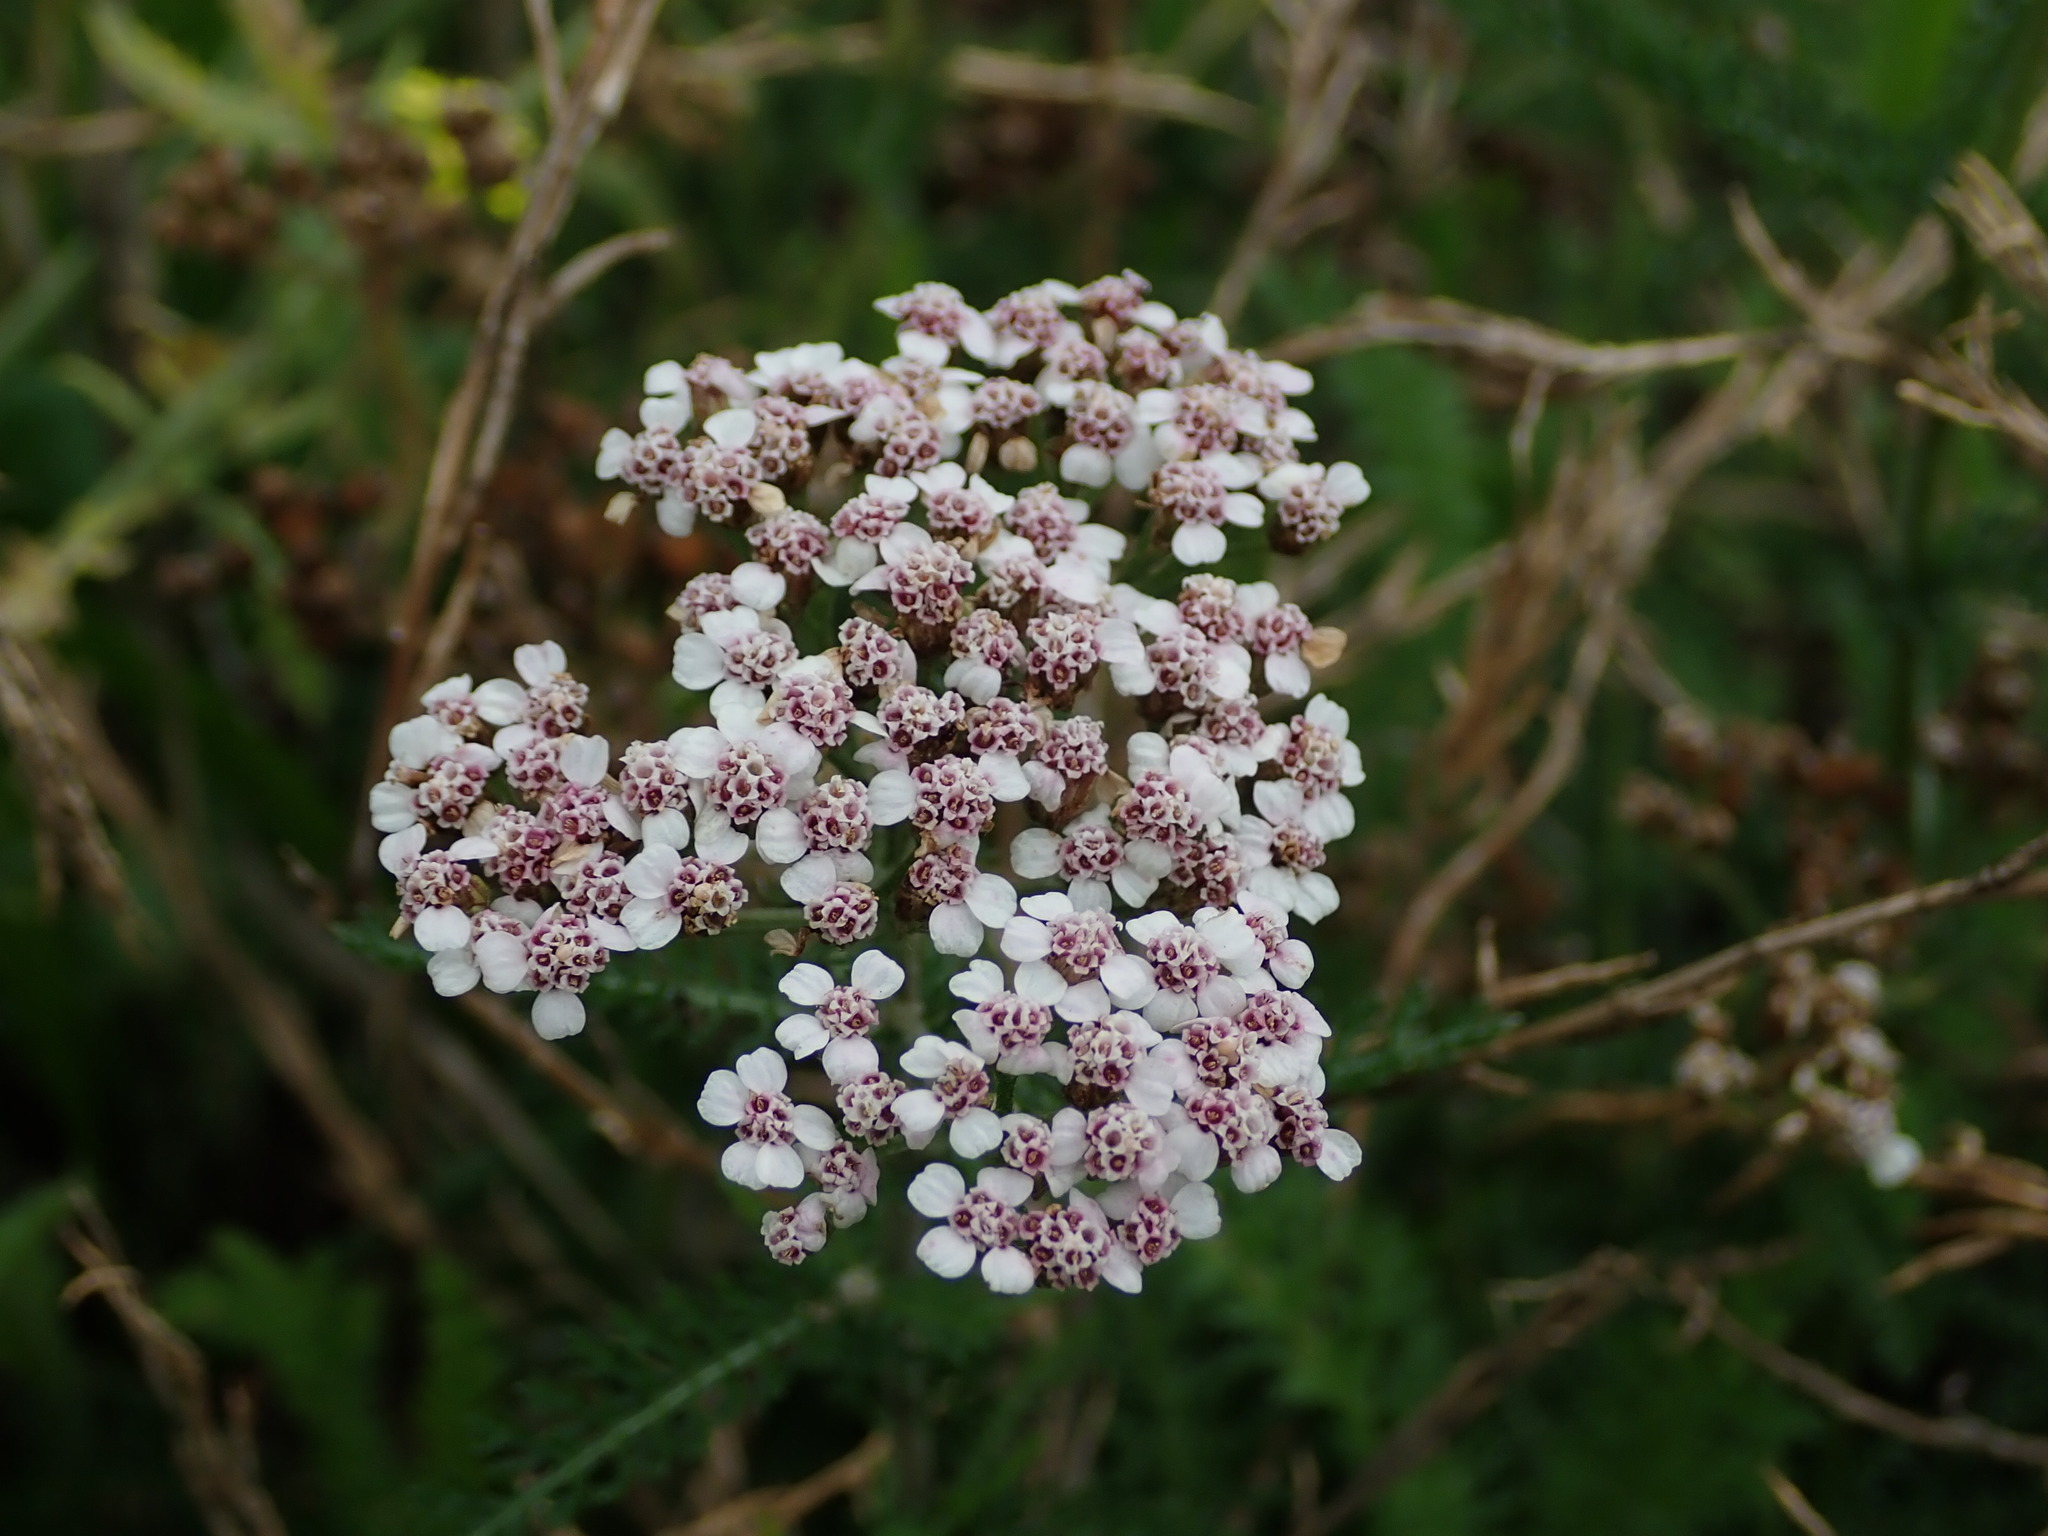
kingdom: Plantae
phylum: Tracheophyta
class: Magnoliopsida
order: Asterales
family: Asteraceae
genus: Achillea
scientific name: Achillea millefolium
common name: Yarrow
